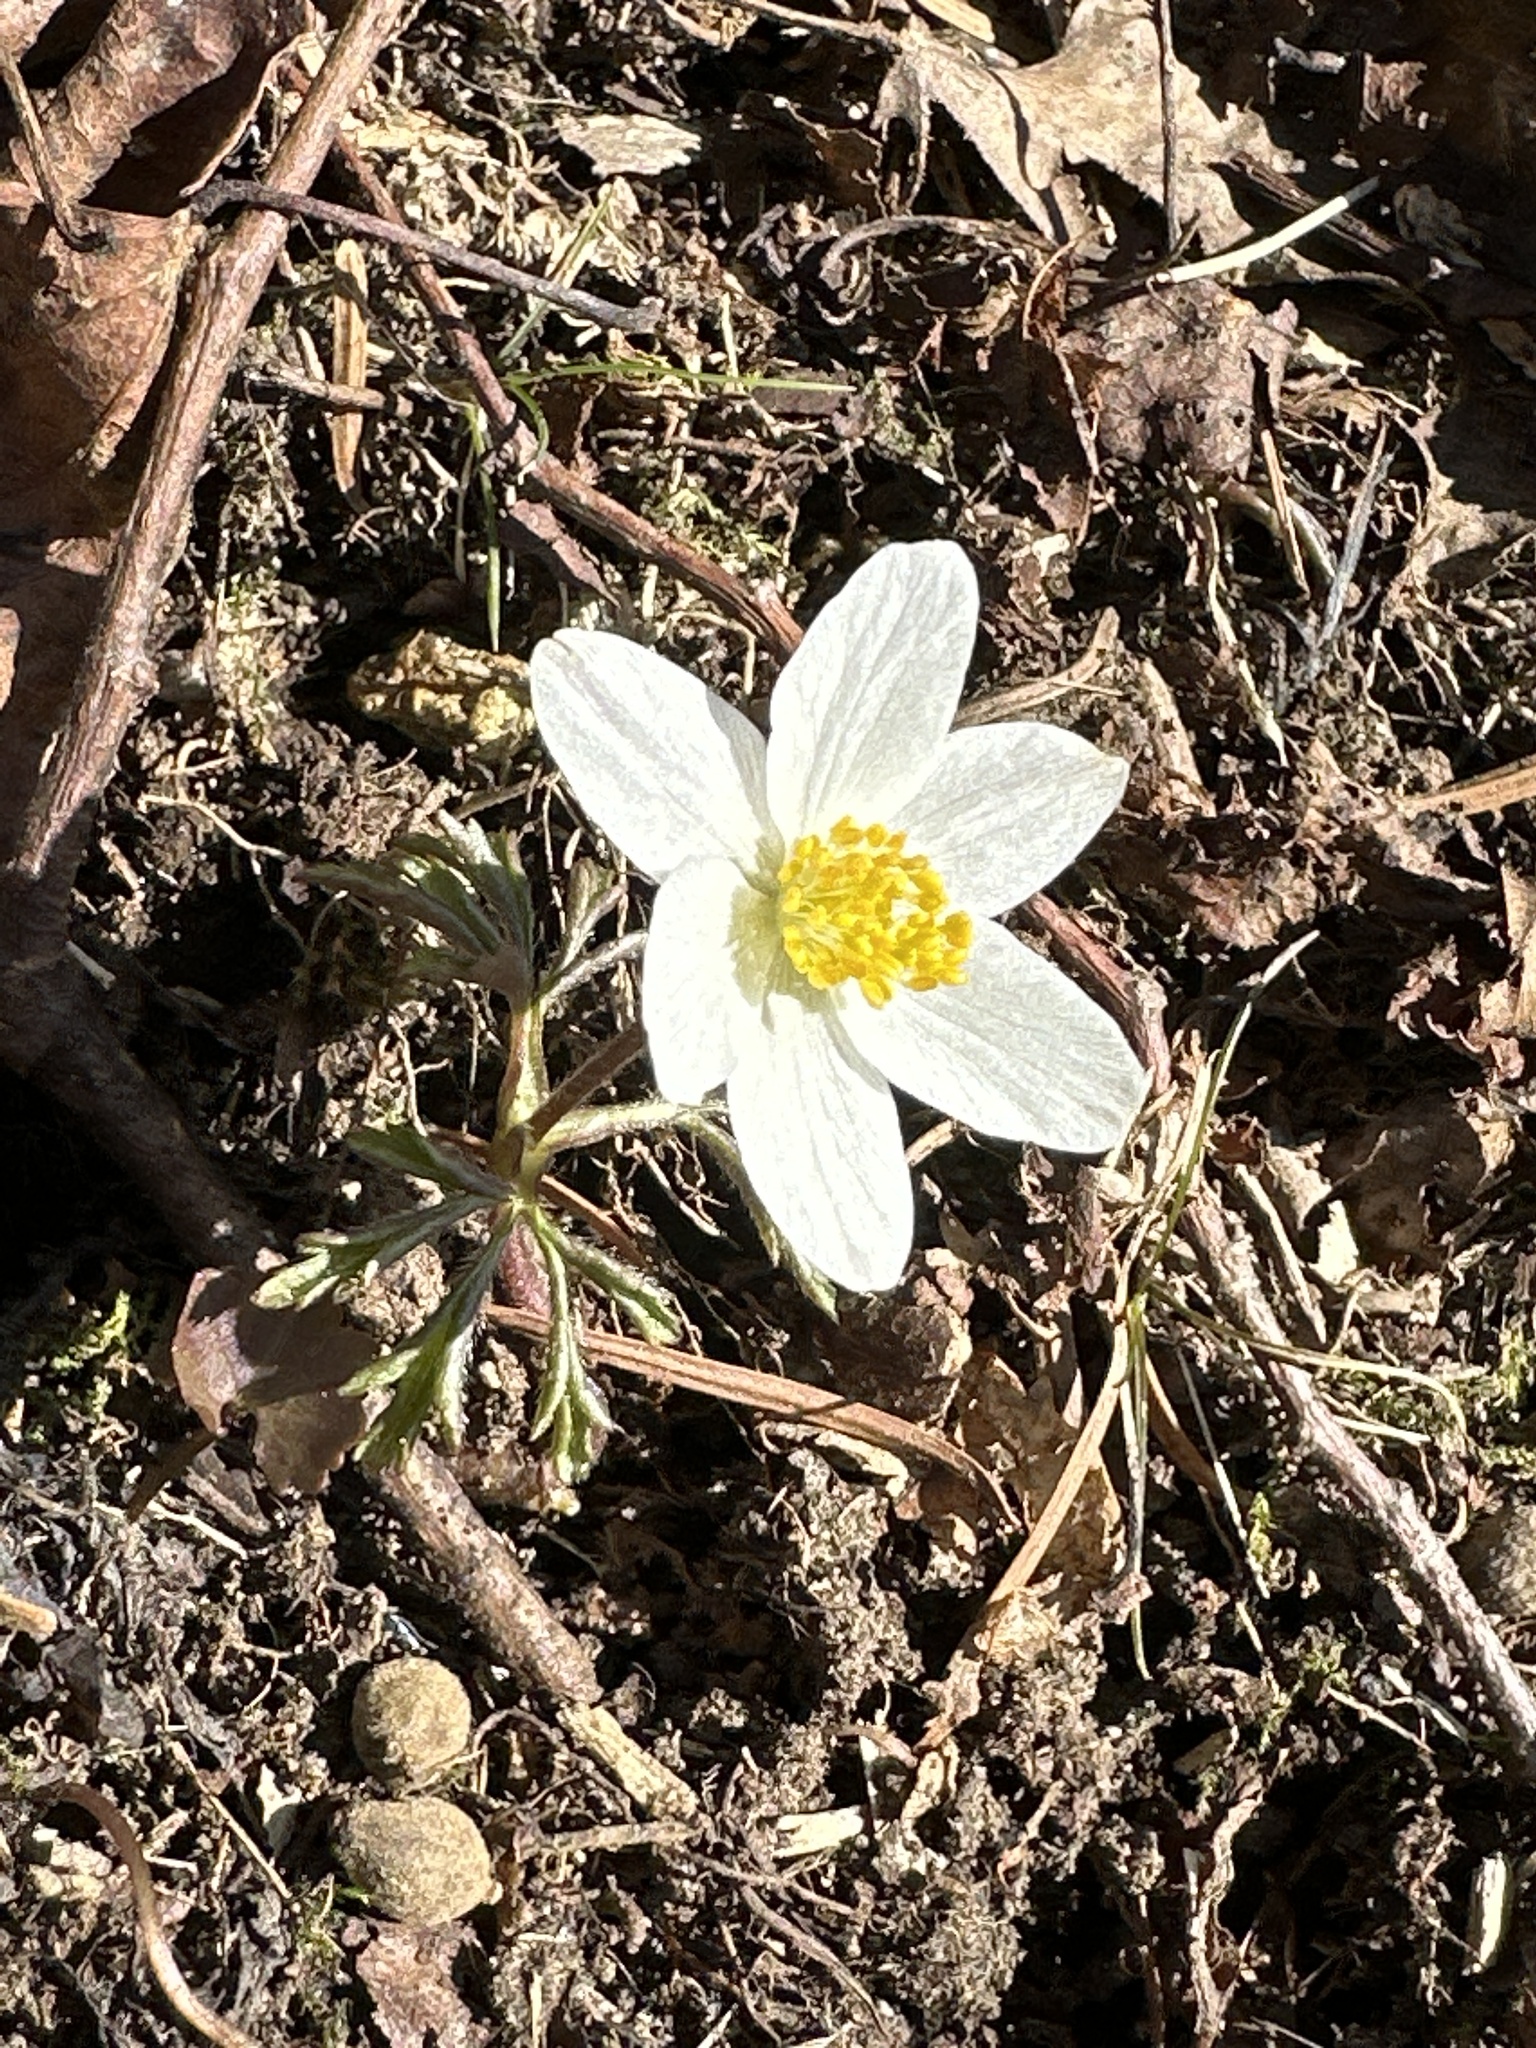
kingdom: Plantae
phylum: Tracheophyta
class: Magnoliopsida
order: Ranunculales
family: Ranunculaceae
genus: Anemone
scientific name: Anemone nemorosa
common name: Wood anemone
